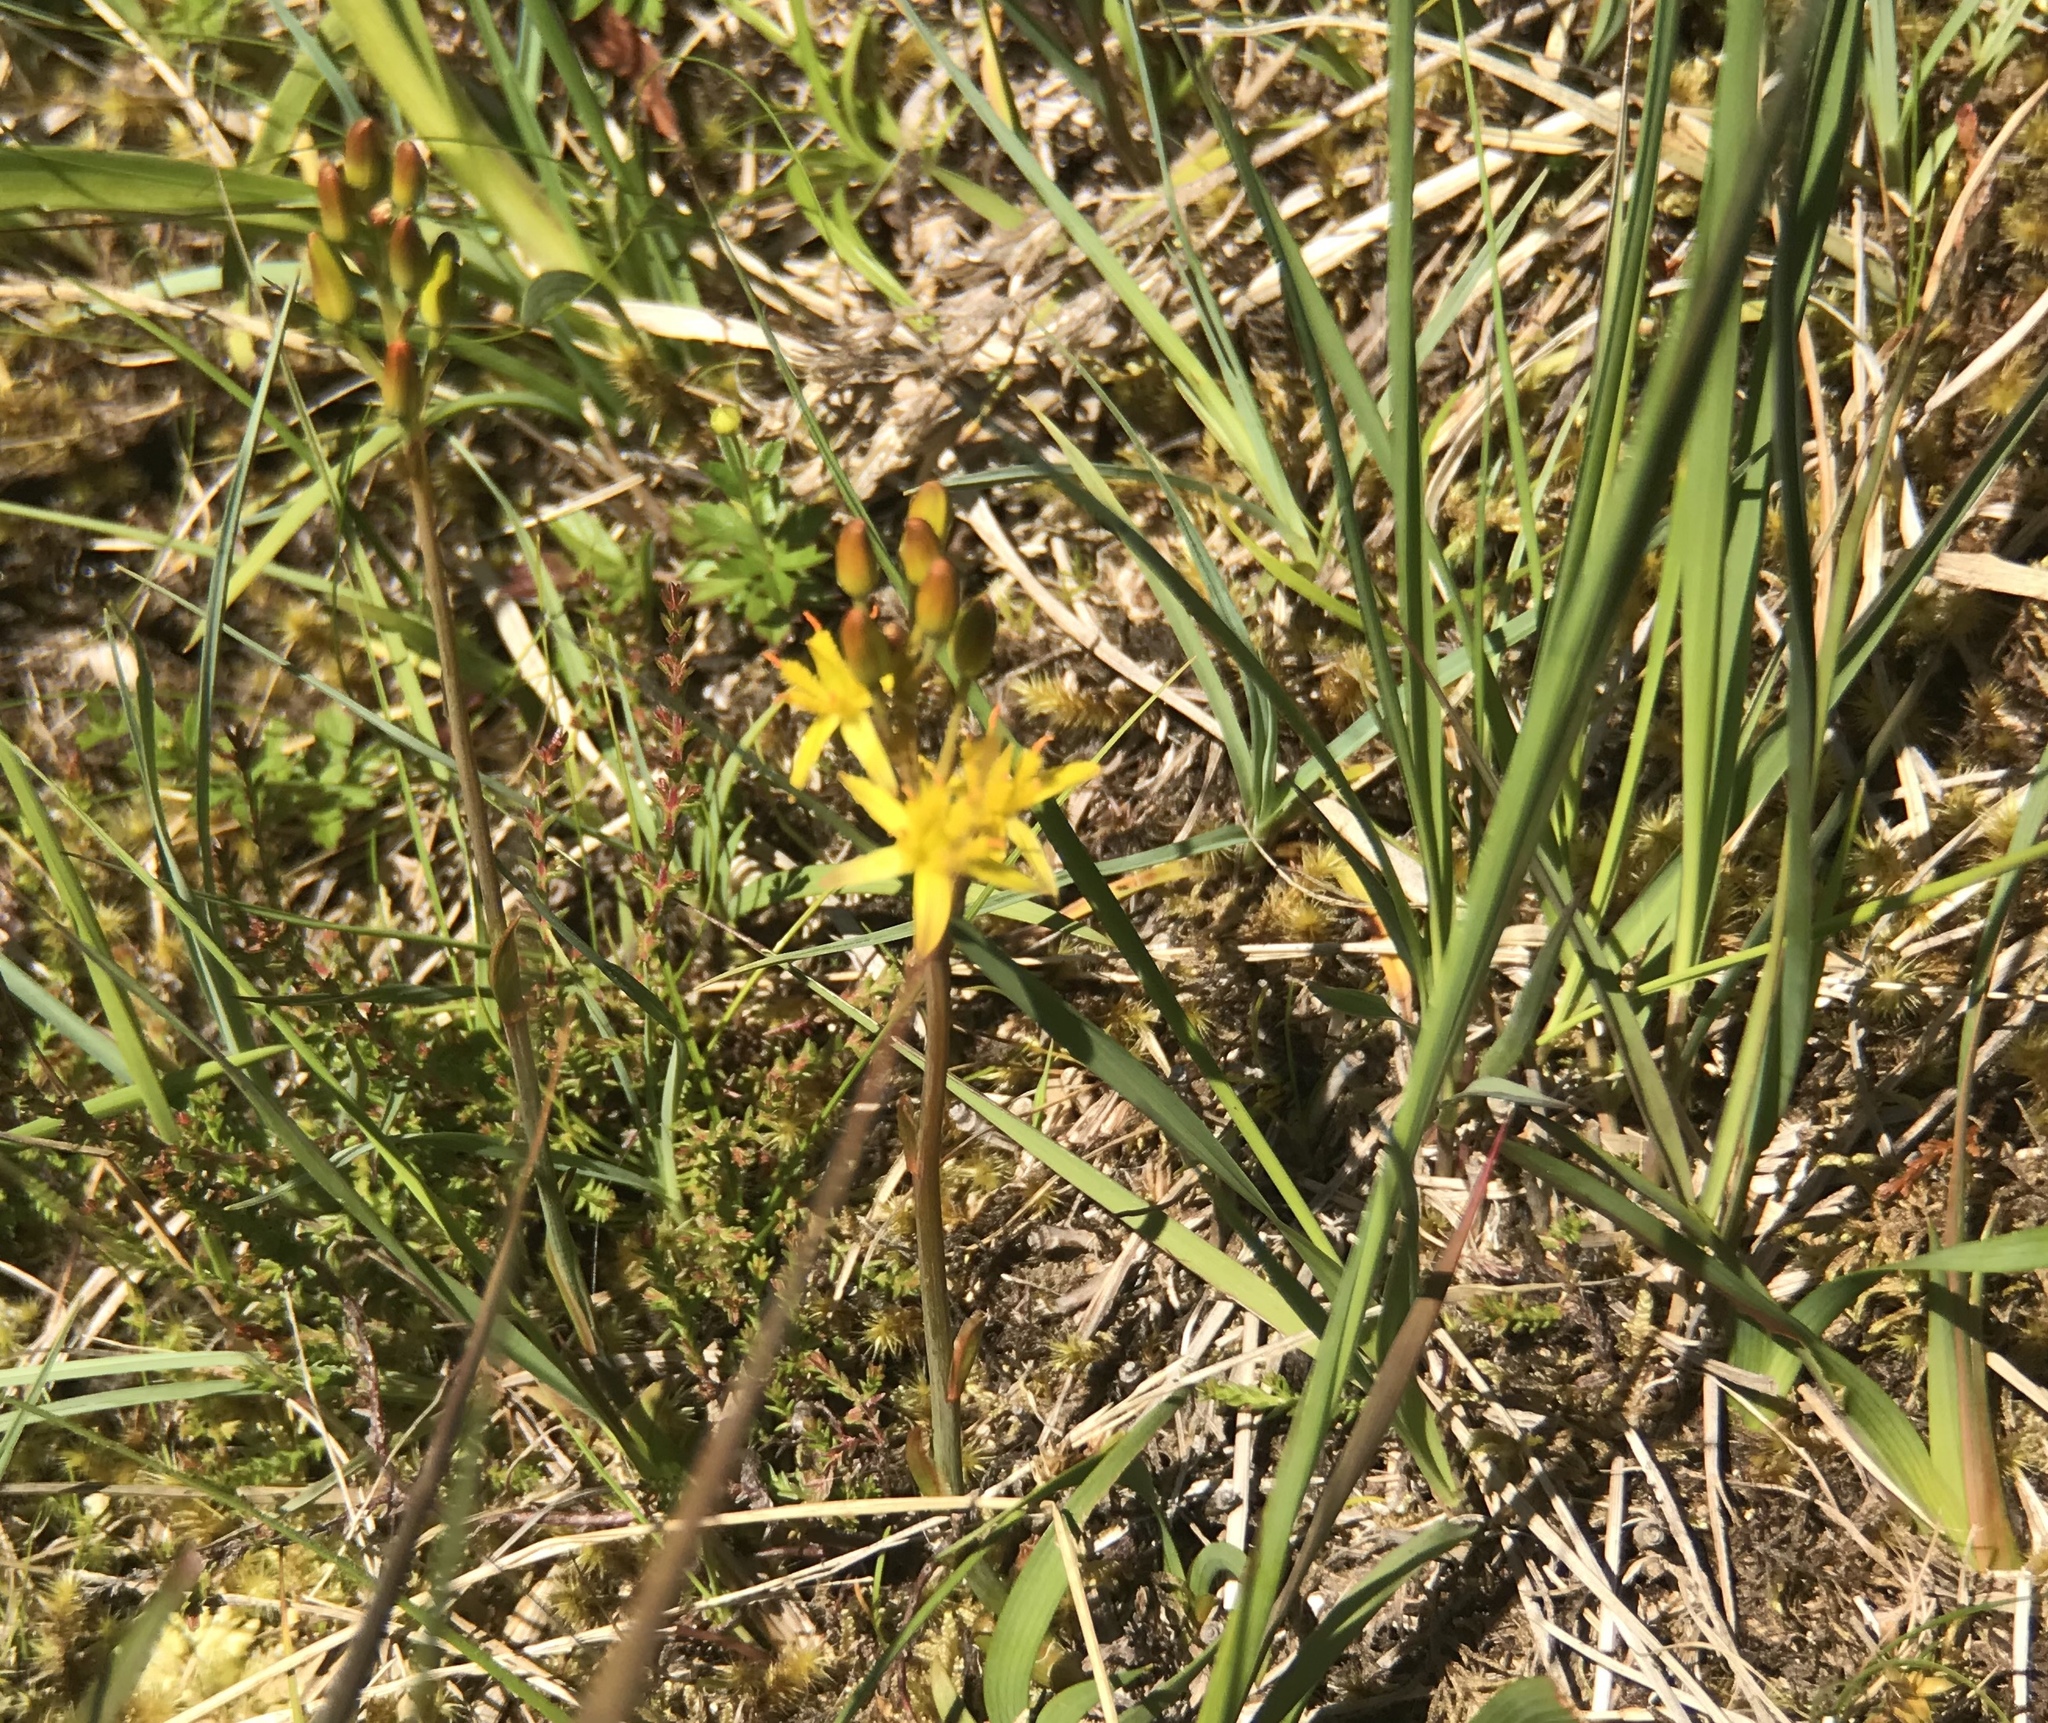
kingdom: Plantae
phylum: Tracheophyta
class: Liliopsida
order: Dioscoreales
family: Nartheciaceae
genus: Narthecium
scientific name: Narthecium ossifragum
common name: Bog asphodel
